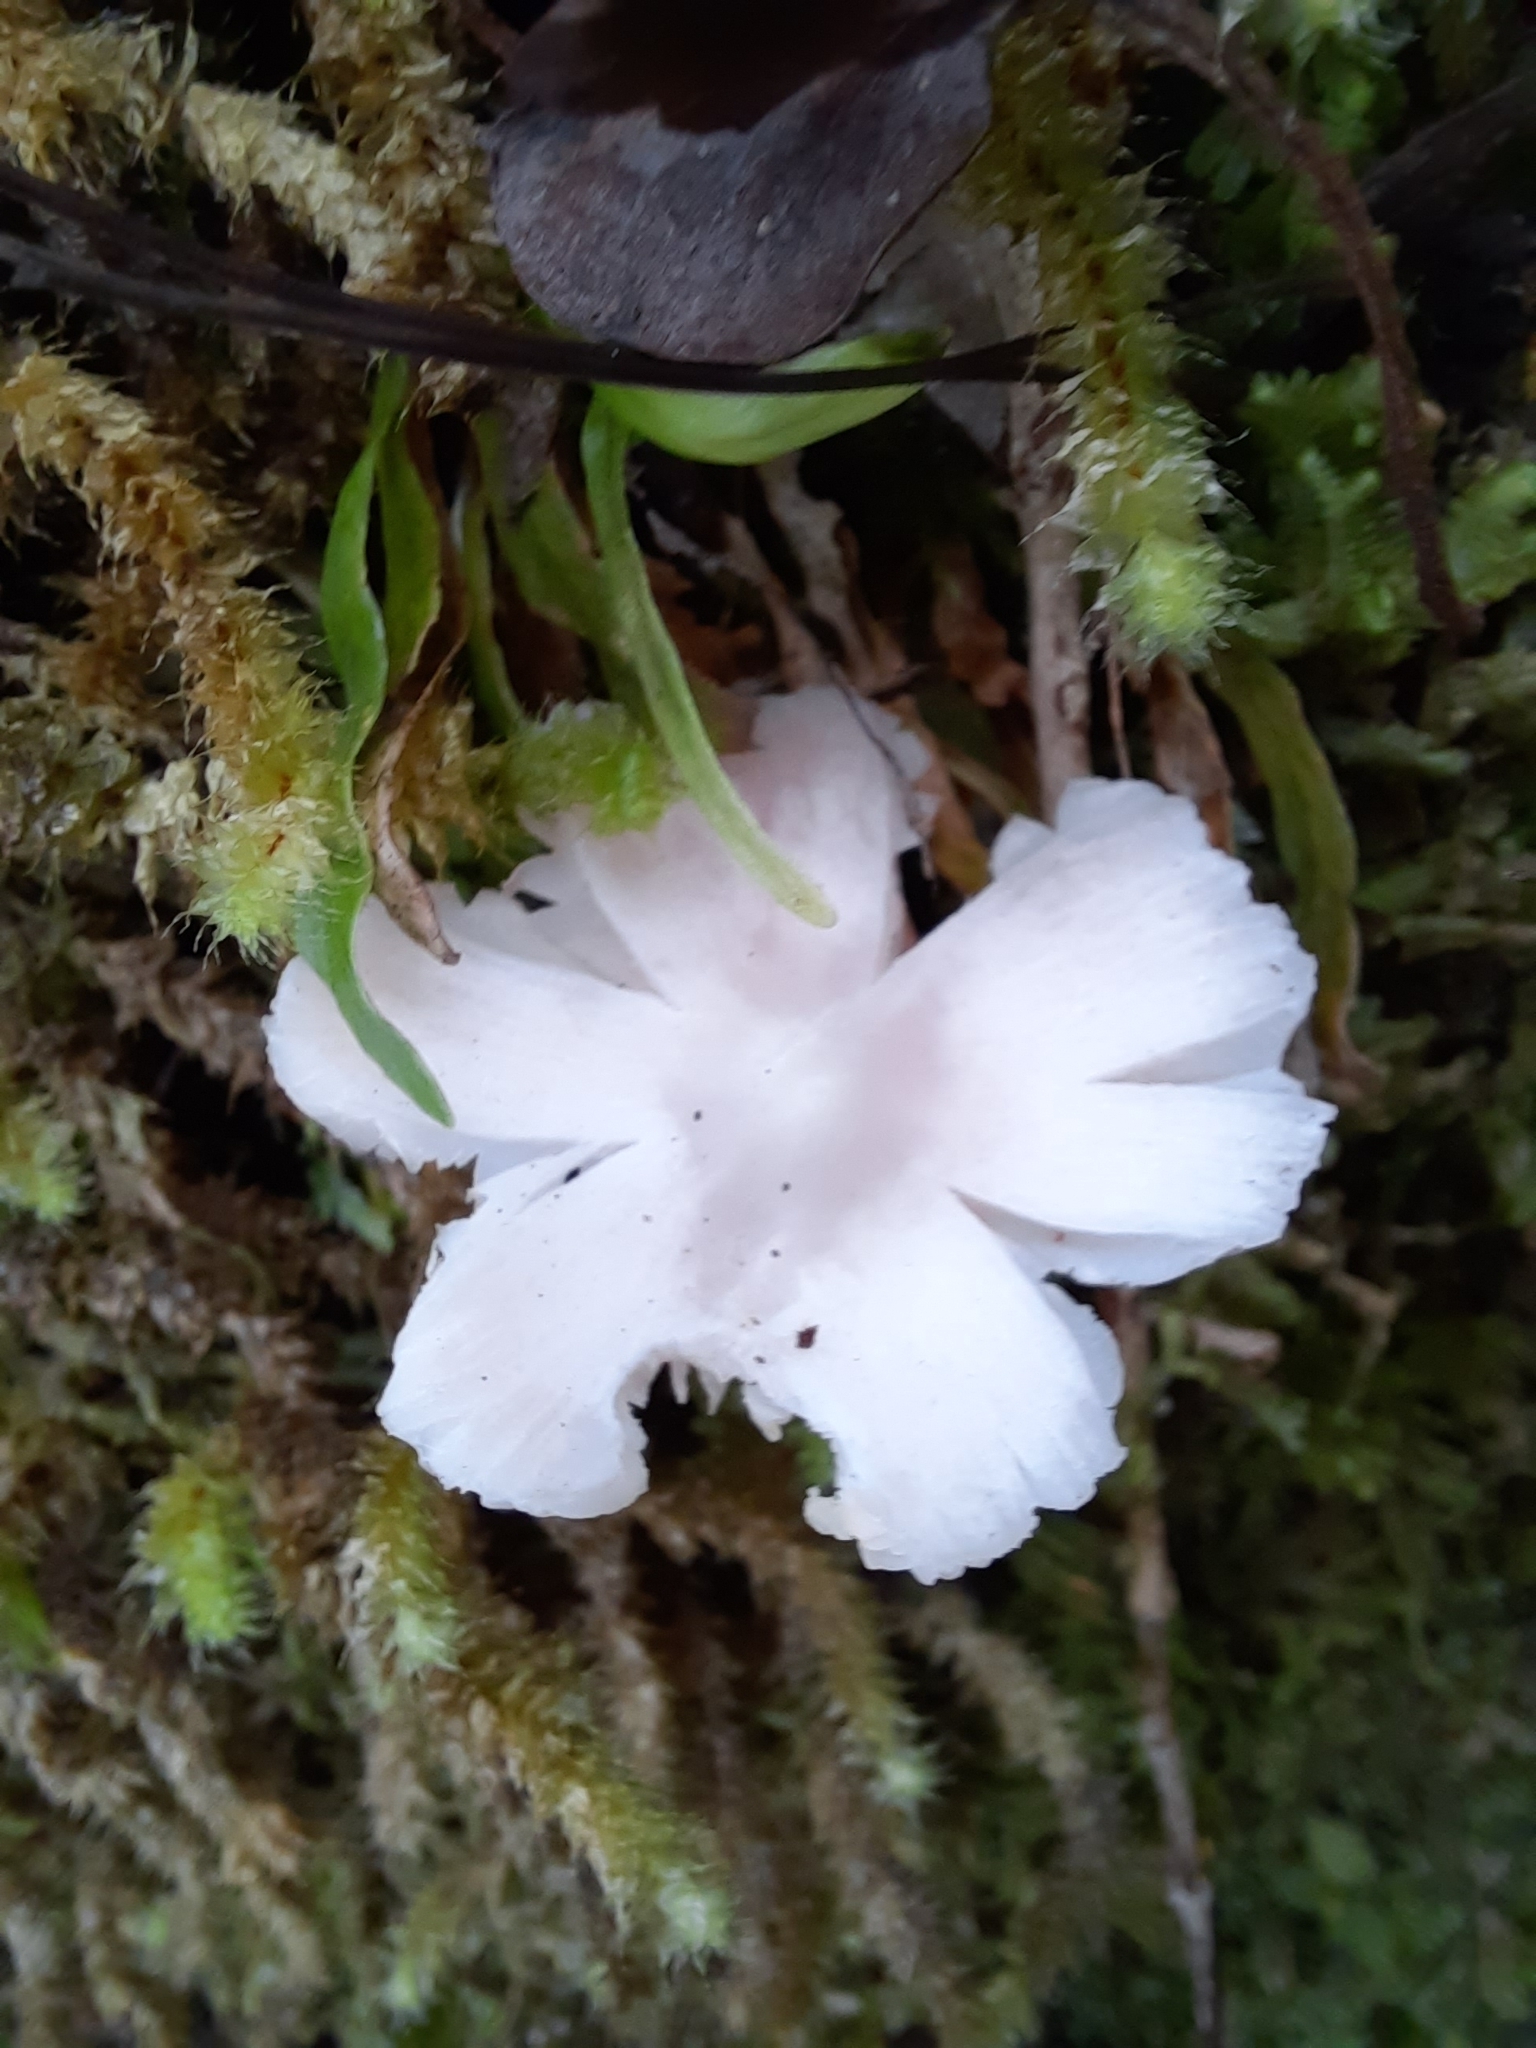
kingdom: Fungi
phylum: Basidiomycota
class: Agaricomycetes
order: Agaricales
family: Hygrophoraceae
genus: Humidicutis
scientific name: Humidicutis mavis
